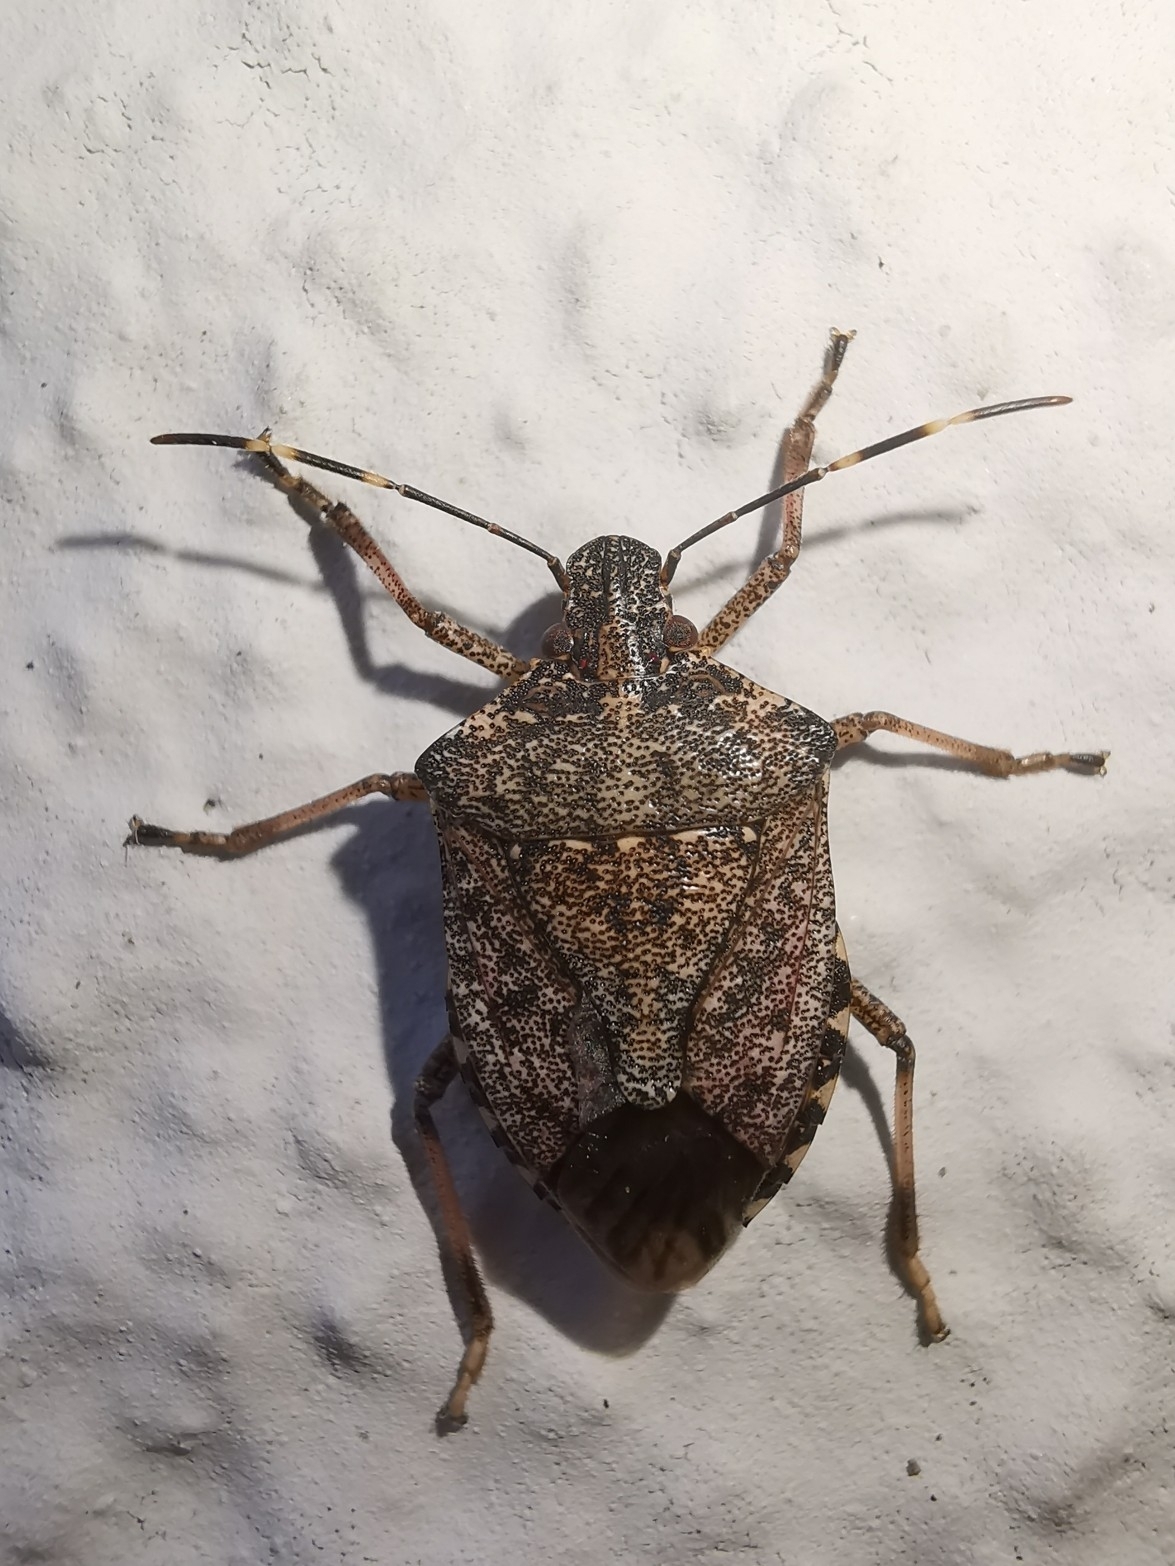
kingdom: Animalia
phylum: Arthropoda
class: Insecta
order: Hemiptera
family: Pentatomidae
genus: Halyomorpha
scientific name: Halyomorpha halys
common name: Brown marmorated stink bug
